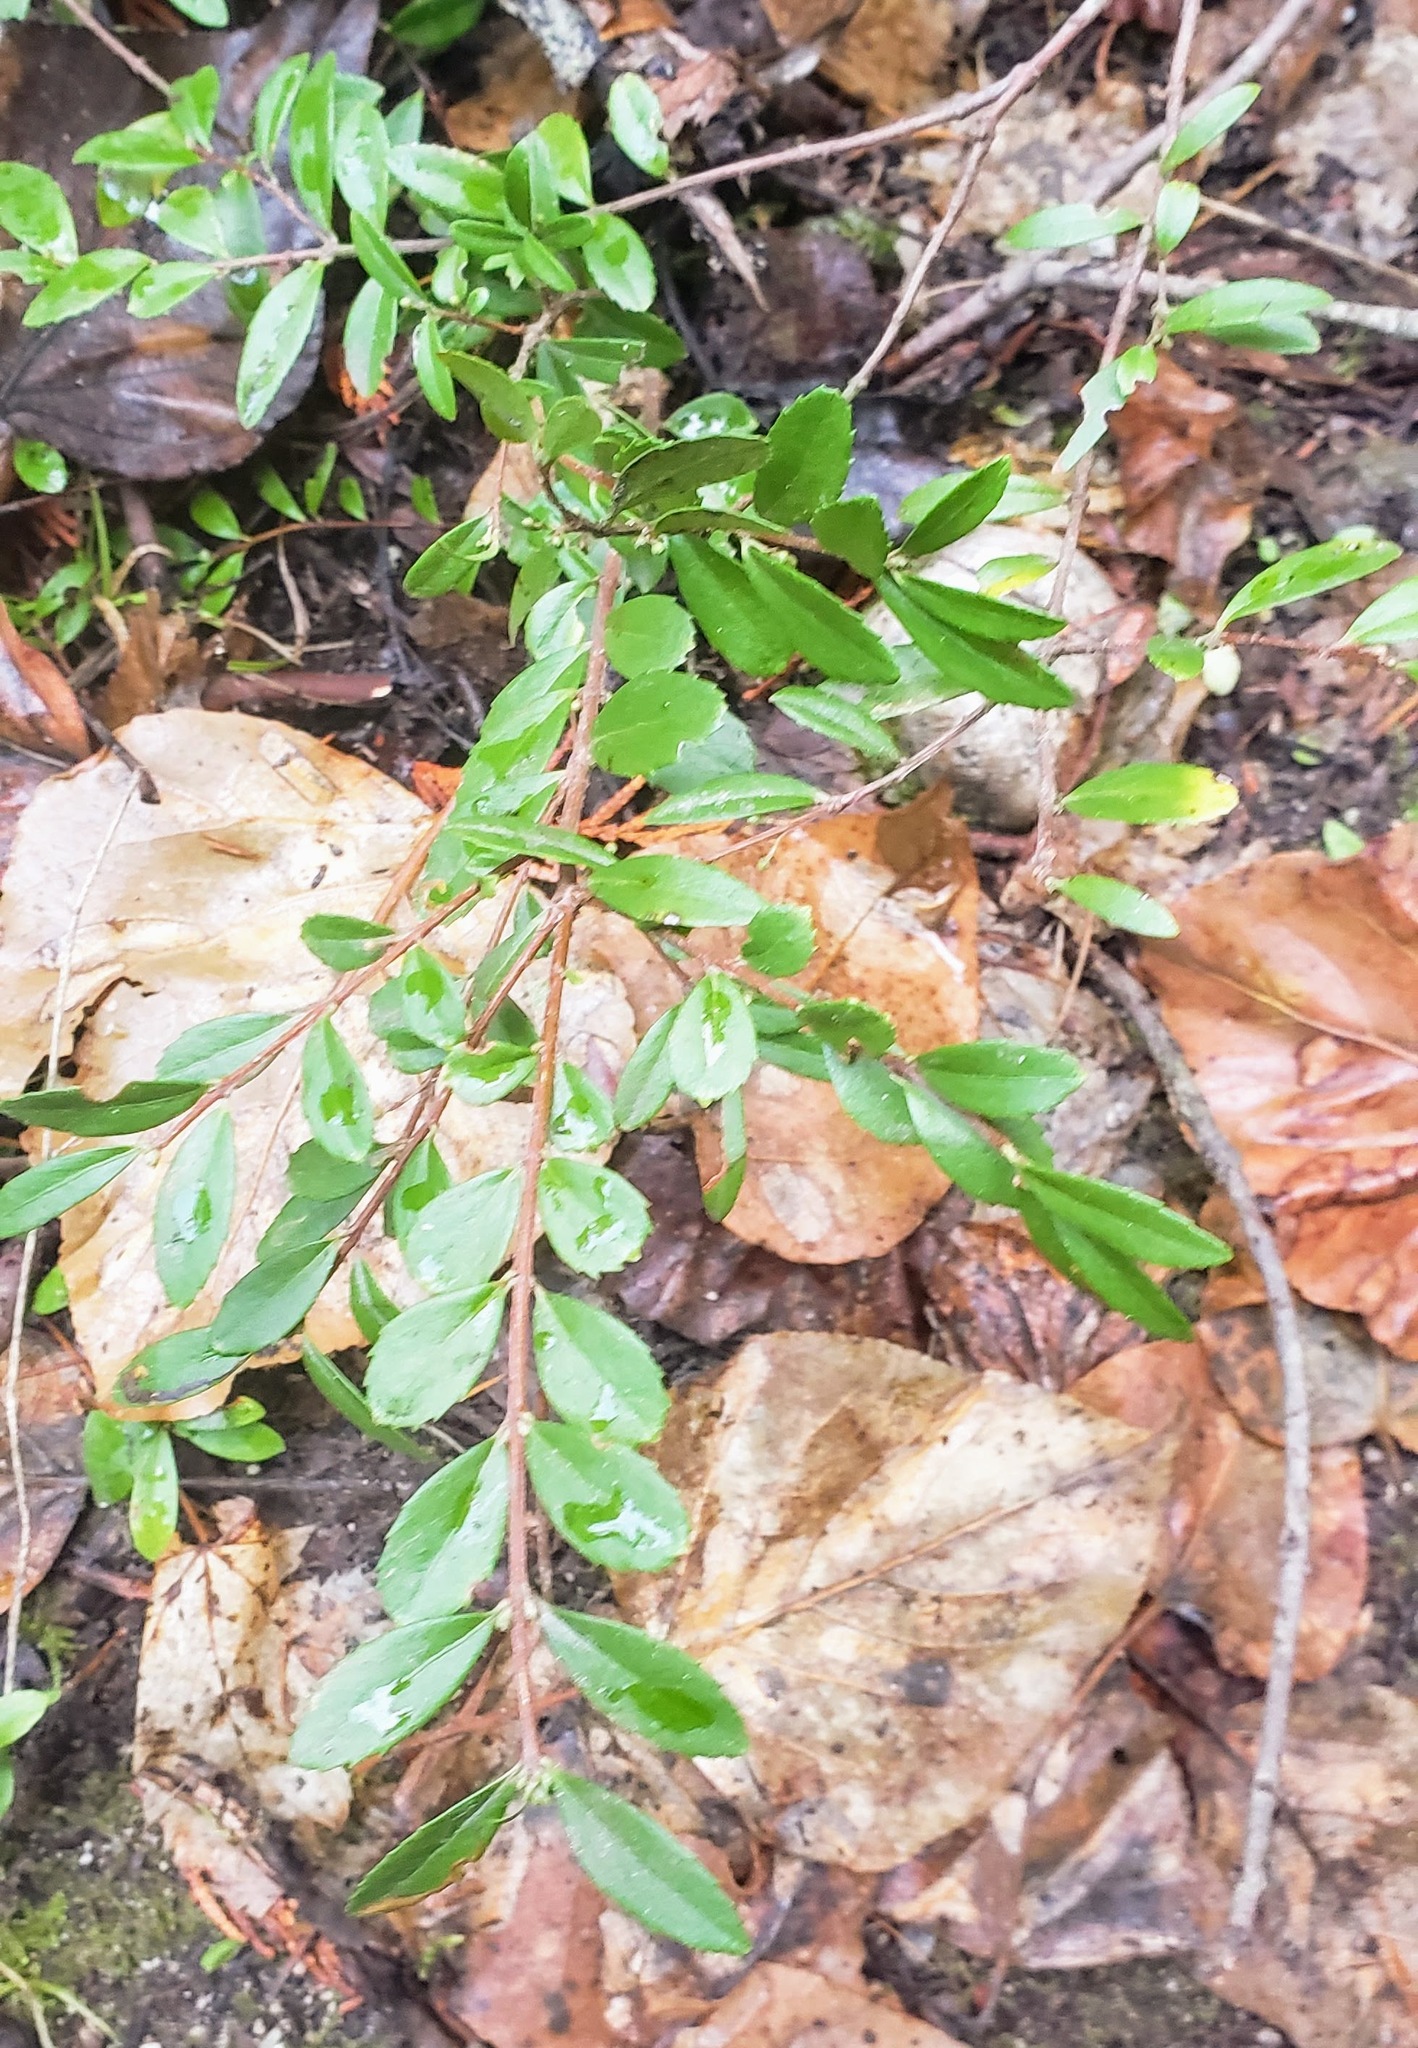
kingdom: Plantae
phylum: Tracheophyta
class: Magnoliopsida
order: Celastrales
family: Celastraceae
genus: Paxistima
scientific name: Paxistima myrsinites
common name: Mountain-lover
